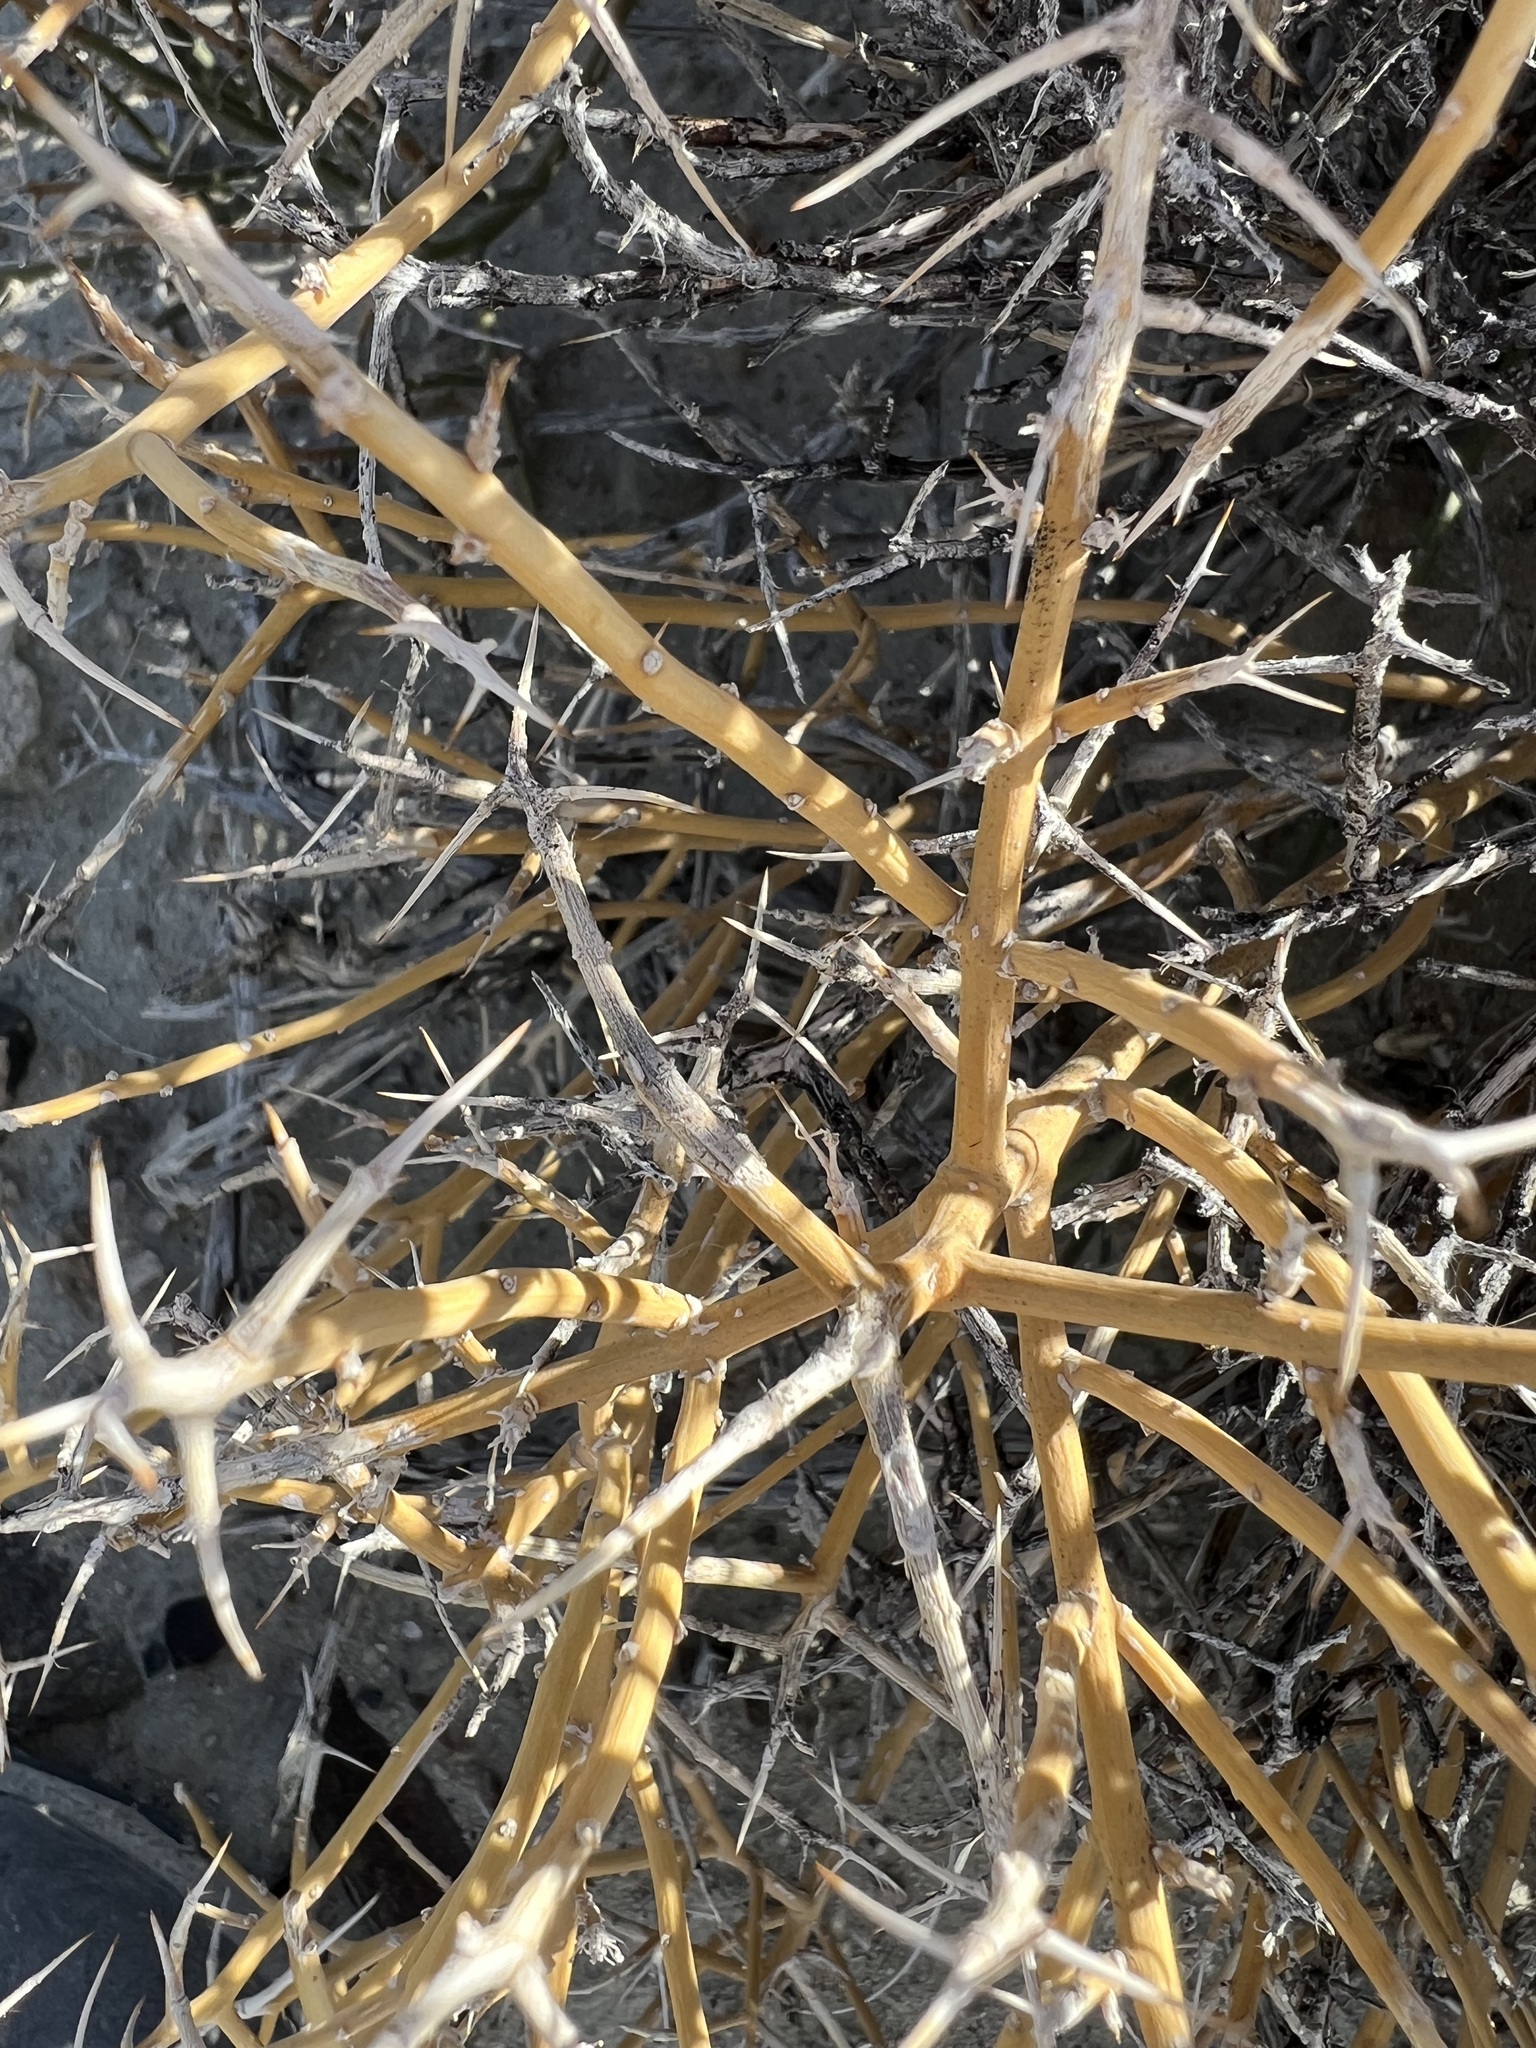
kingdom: Plantae
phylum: Tracheophyta
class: Magnoliopsida
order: Lamiales
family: Oleaceae
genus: Menodora
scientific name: Menodora spinescens
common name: Spiny menodora
